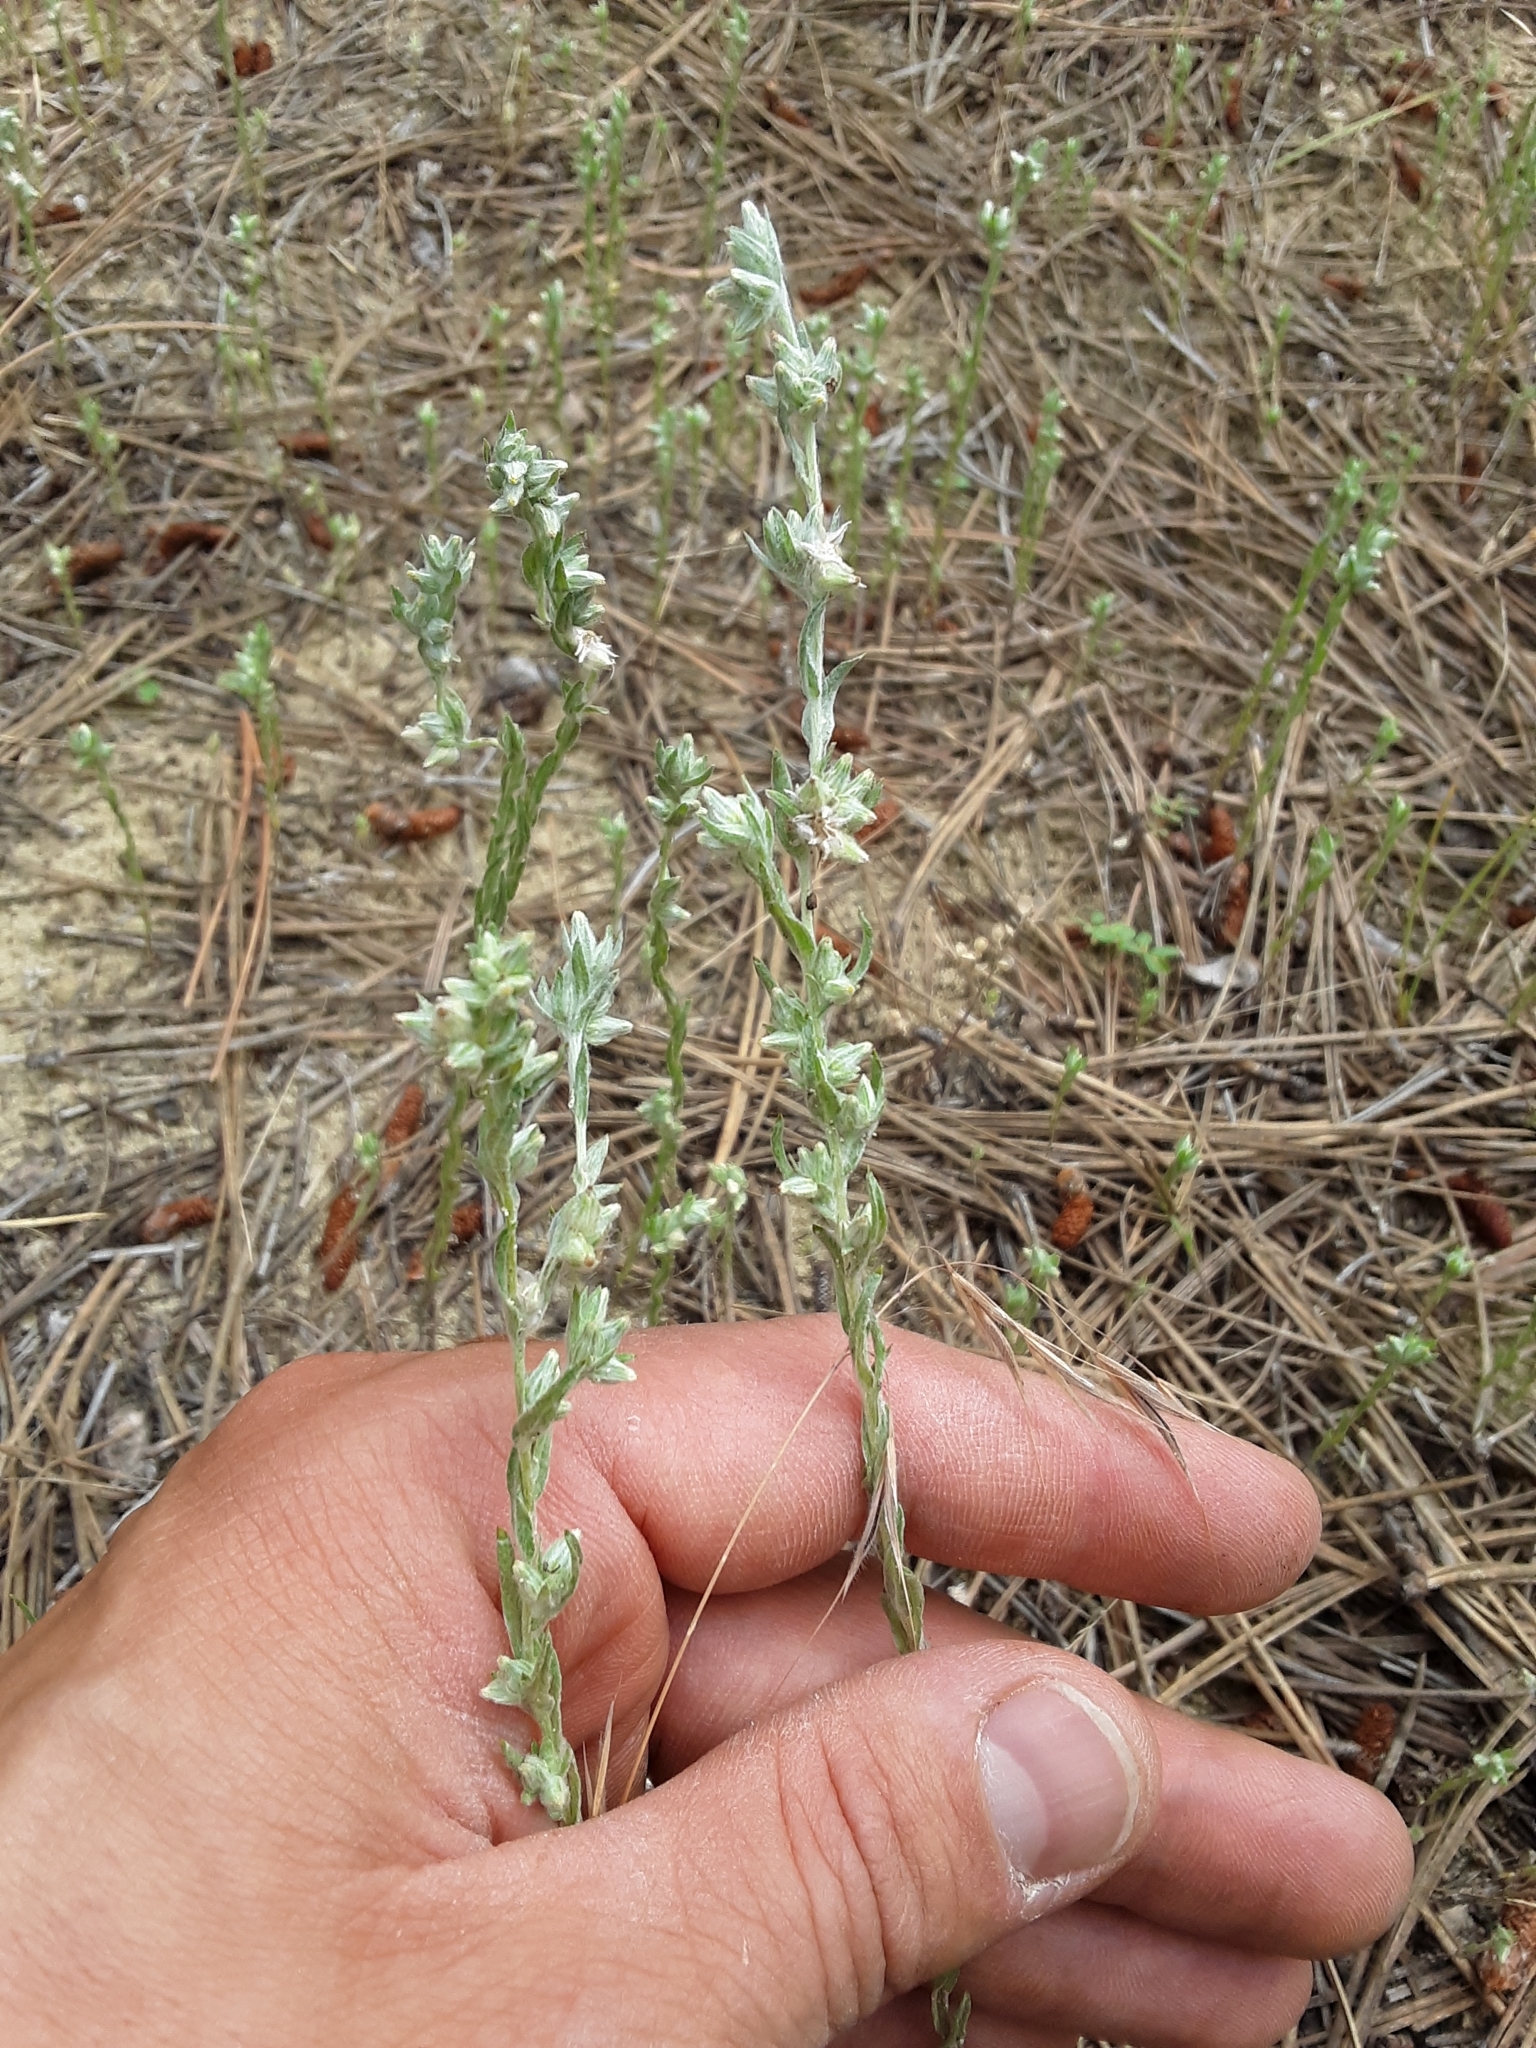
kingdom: Plantae
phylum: Tracheophyta
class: Magnoliopsida
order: Asterales
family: Asteraceae
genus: Filago
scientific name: Filago arvensis
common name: Field cudweed
